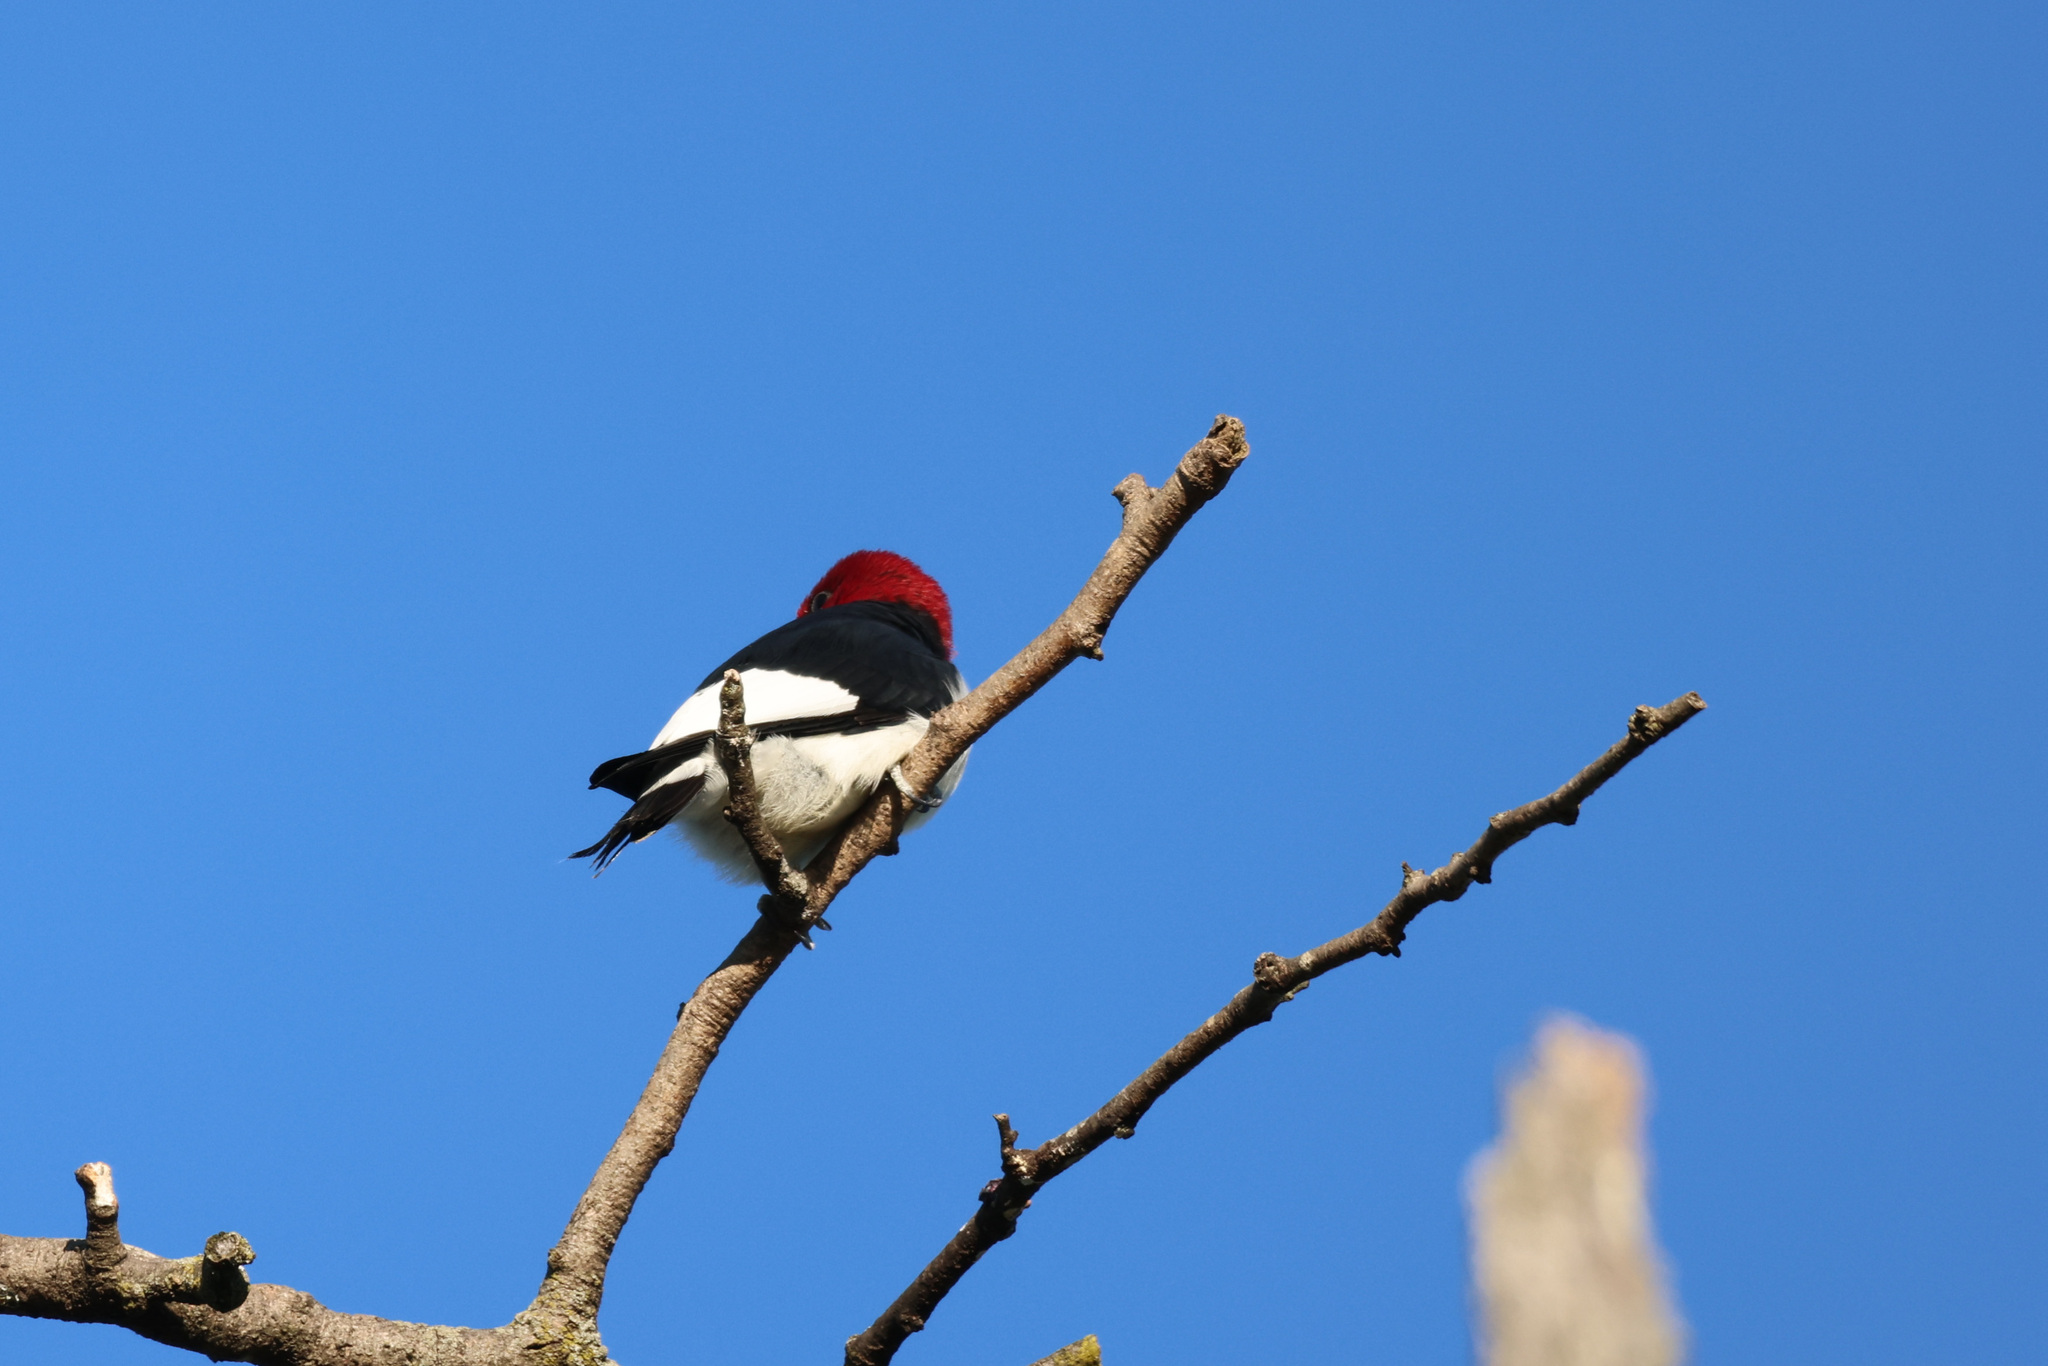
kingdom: Animalia
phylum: Chordata
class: Aves
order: Piciformes
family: Picidae
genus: Melanerpes
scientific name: Melanerpes erythrocephalus
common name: Red-headed woodpecker
